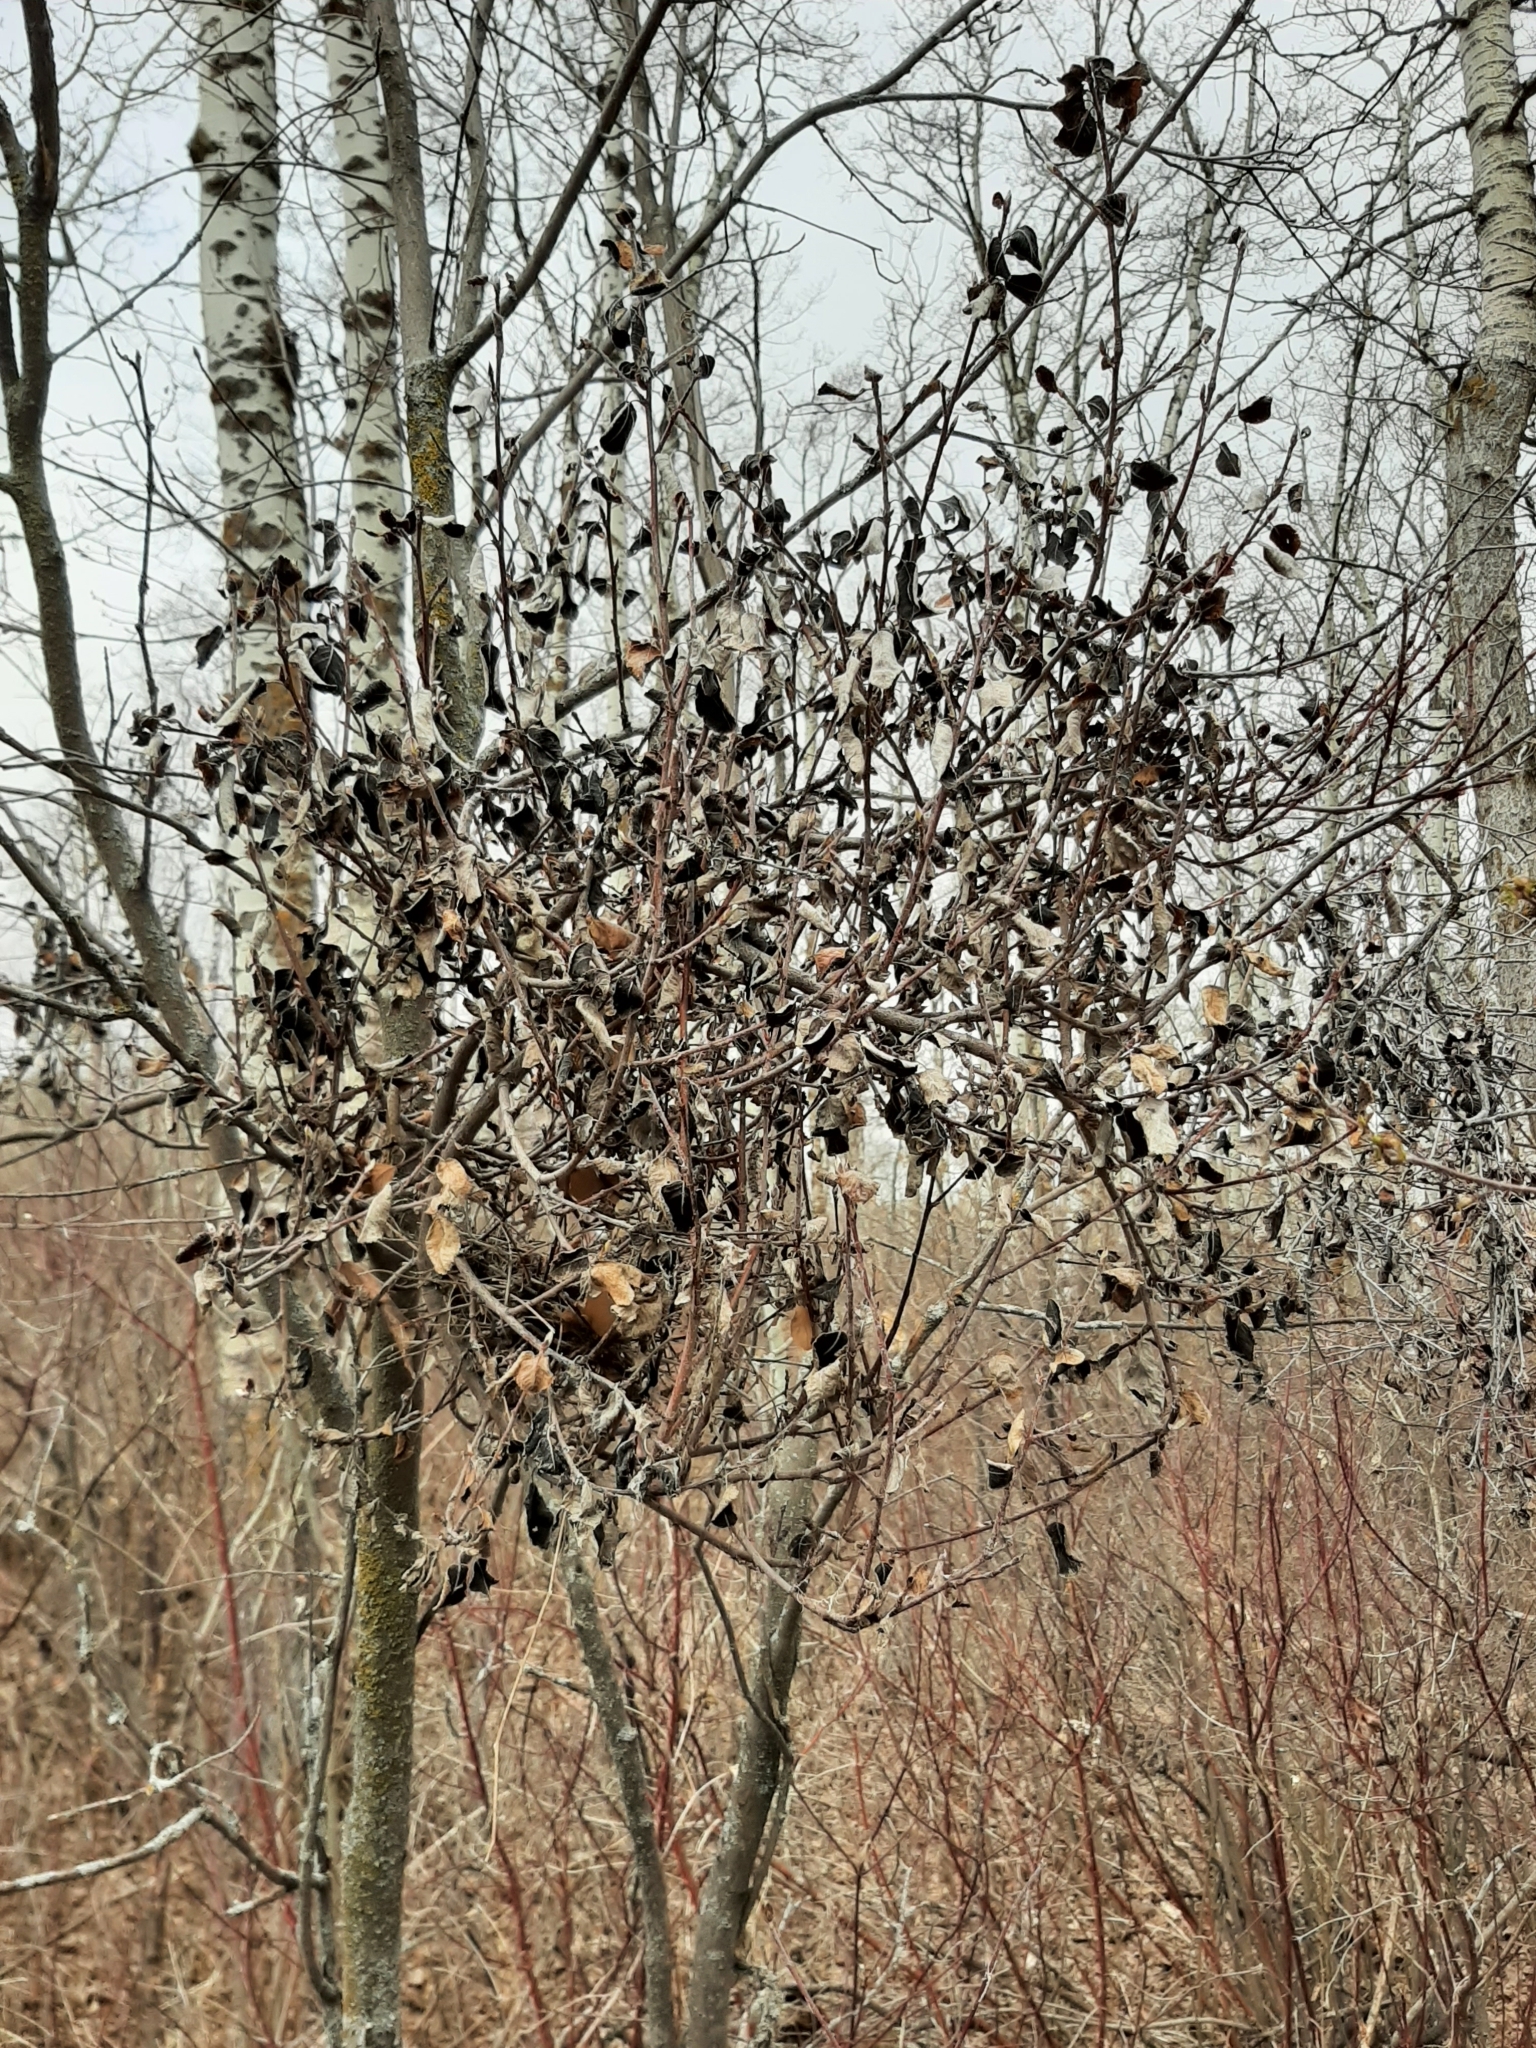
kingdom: Fungi
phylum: Ascomycota
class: Dothideomycetes
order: Venturiales
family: Venturiaceae
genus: Apiosporina
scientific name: Apiosporina collinsii
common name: Black leaf
